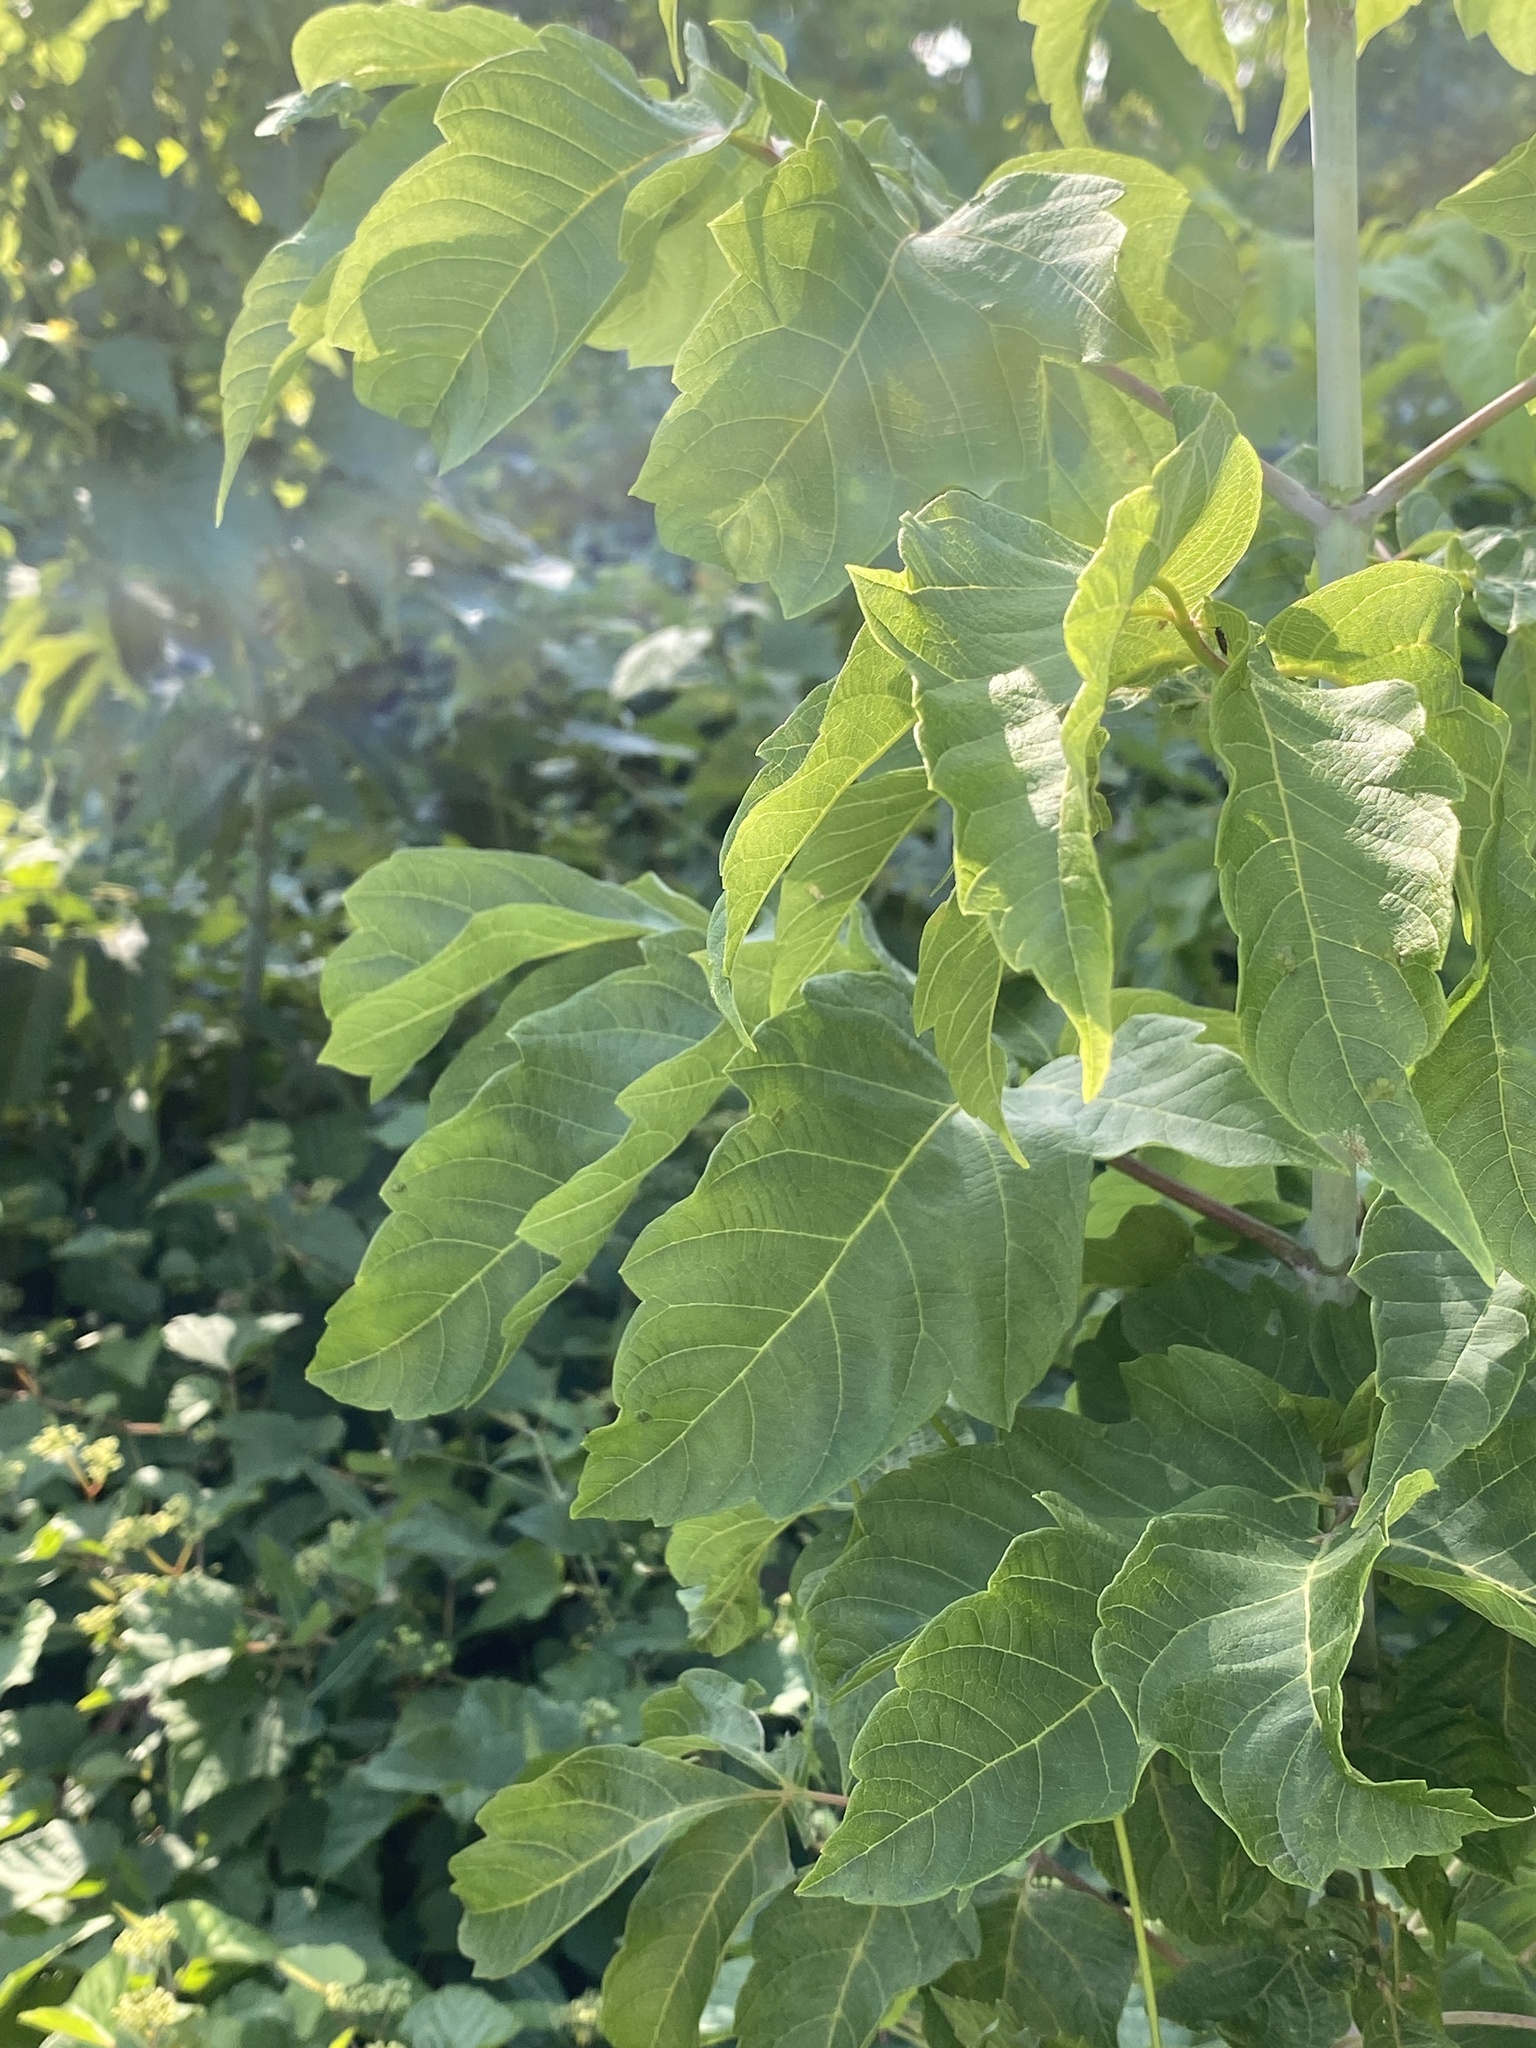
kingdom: Plantae
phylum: Tracheophyta
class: Magnoliopsida
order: Sapindales
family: Sapindaceae
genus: Acer
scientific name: Acer negundo
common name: Ashleaf maple
